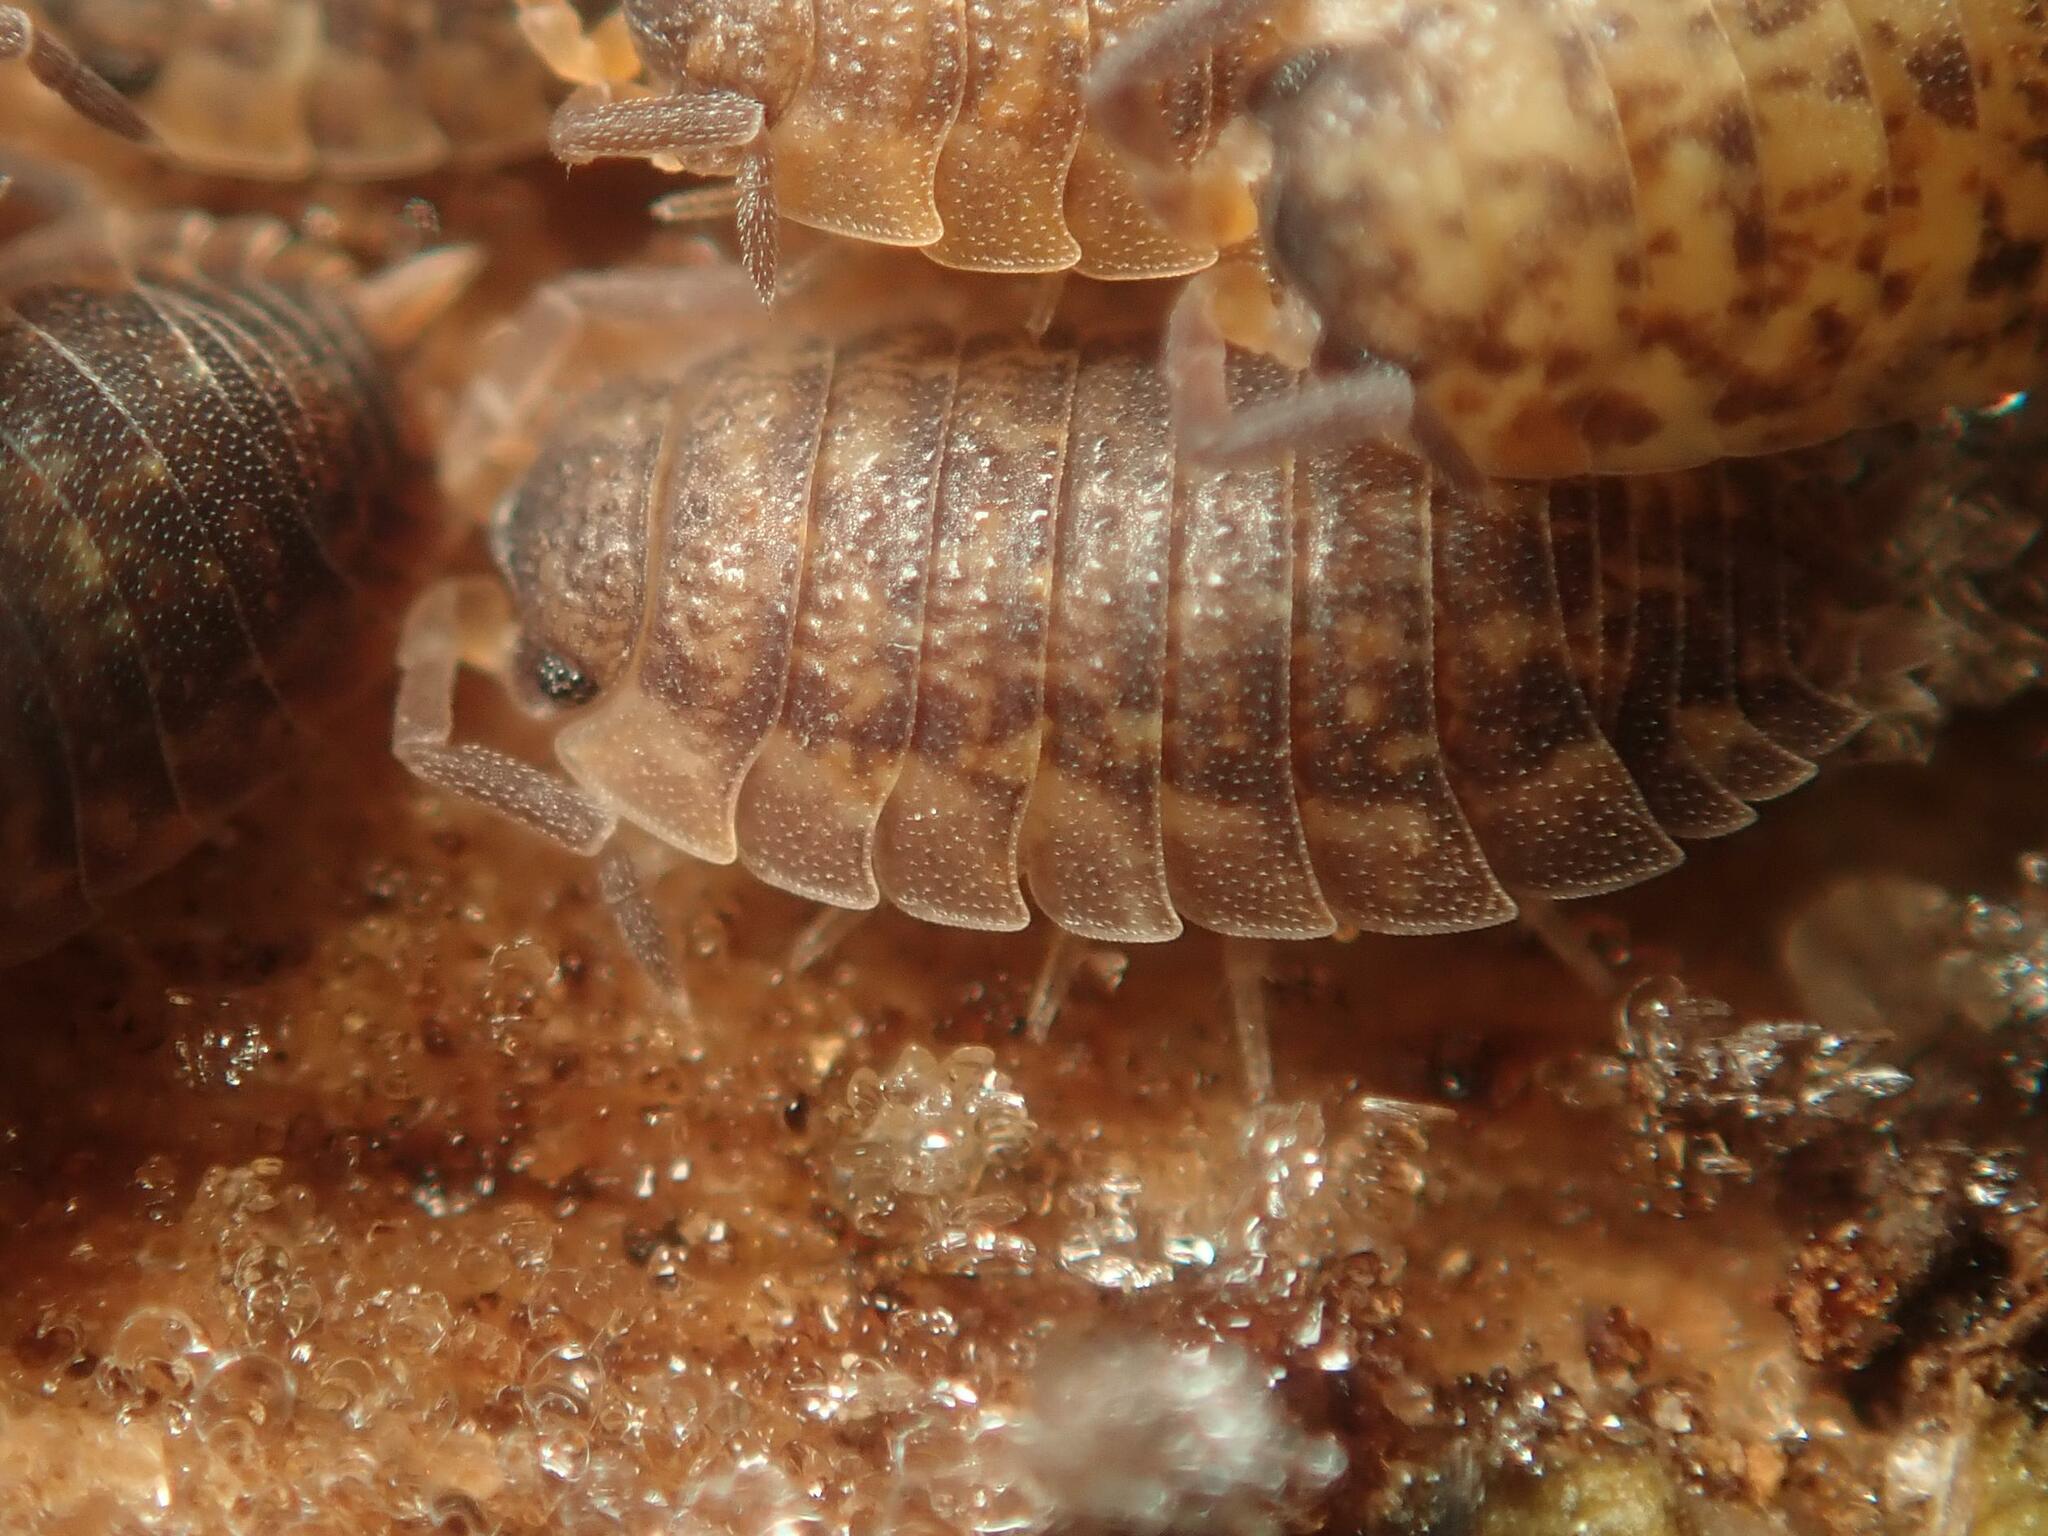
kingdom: Animalia
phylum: Arthropoda
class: Malacostraca
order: Isopoda
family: Porcellionidae
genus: Porcellio
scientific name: Porcellio scaber
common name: Common rough woodlouse
